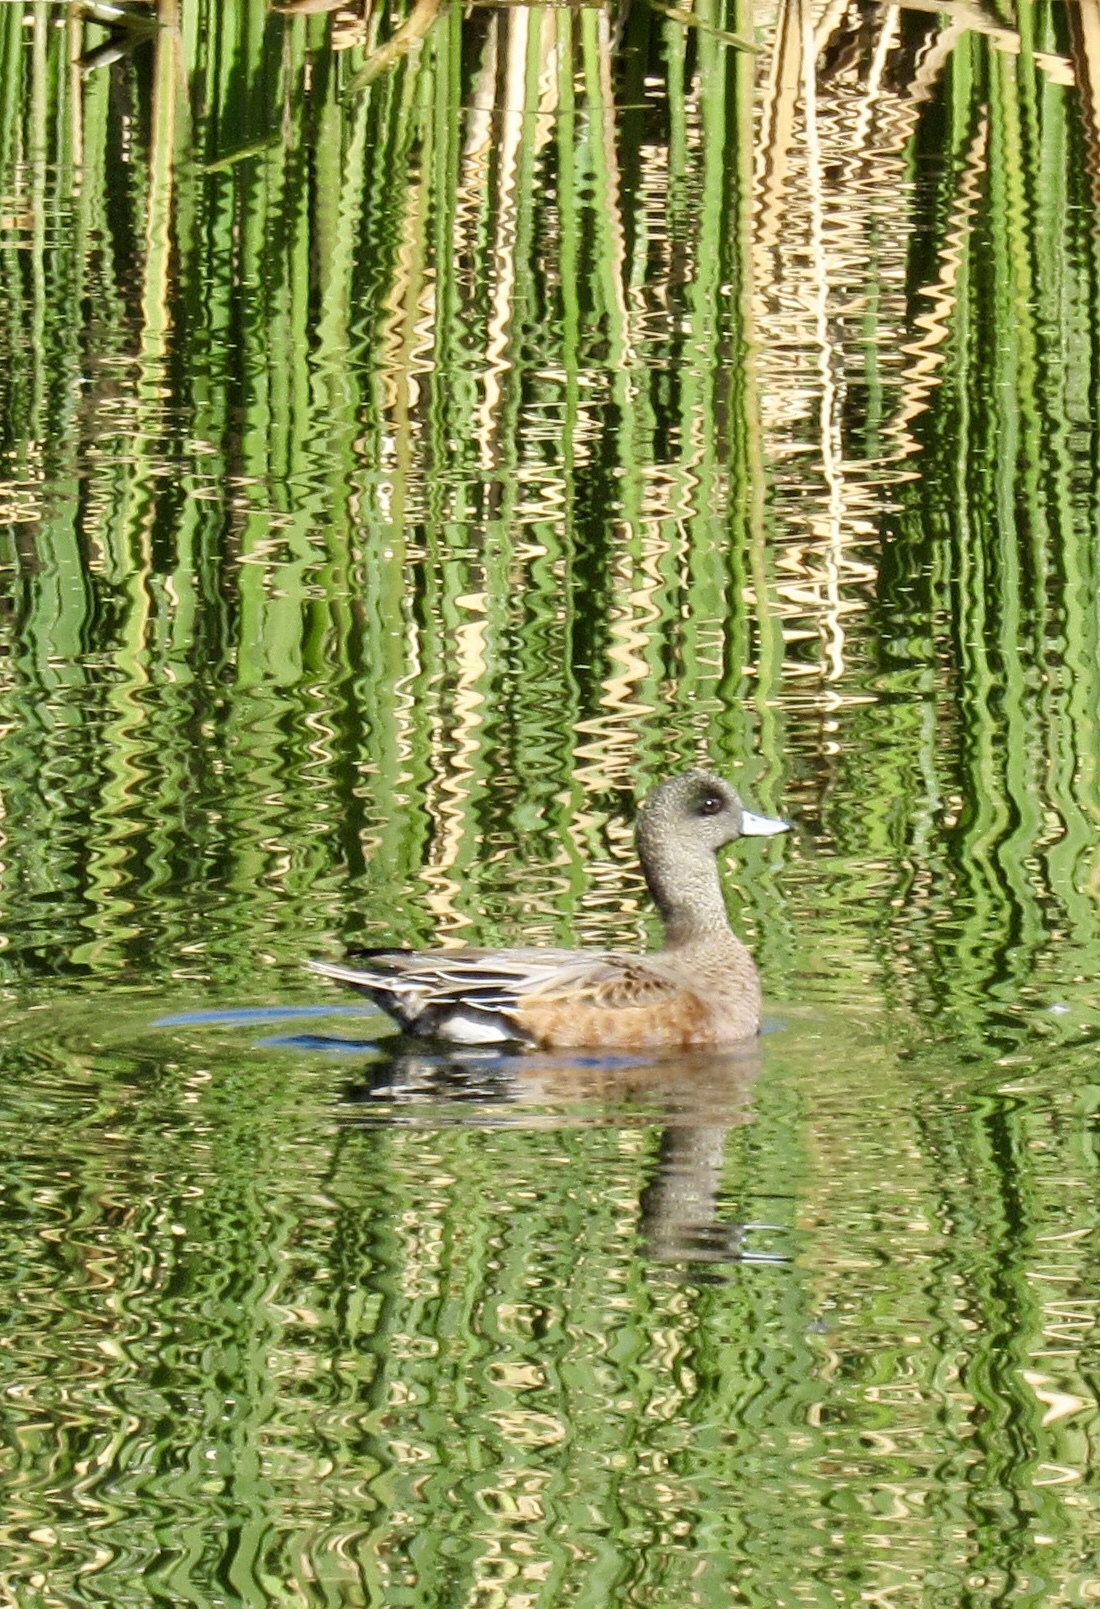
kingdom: Animalia
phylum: Chordata
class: Aves
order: Anseriformes
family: Anatidae
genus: Mareca
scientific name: Mareca americana
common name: American wigeon
